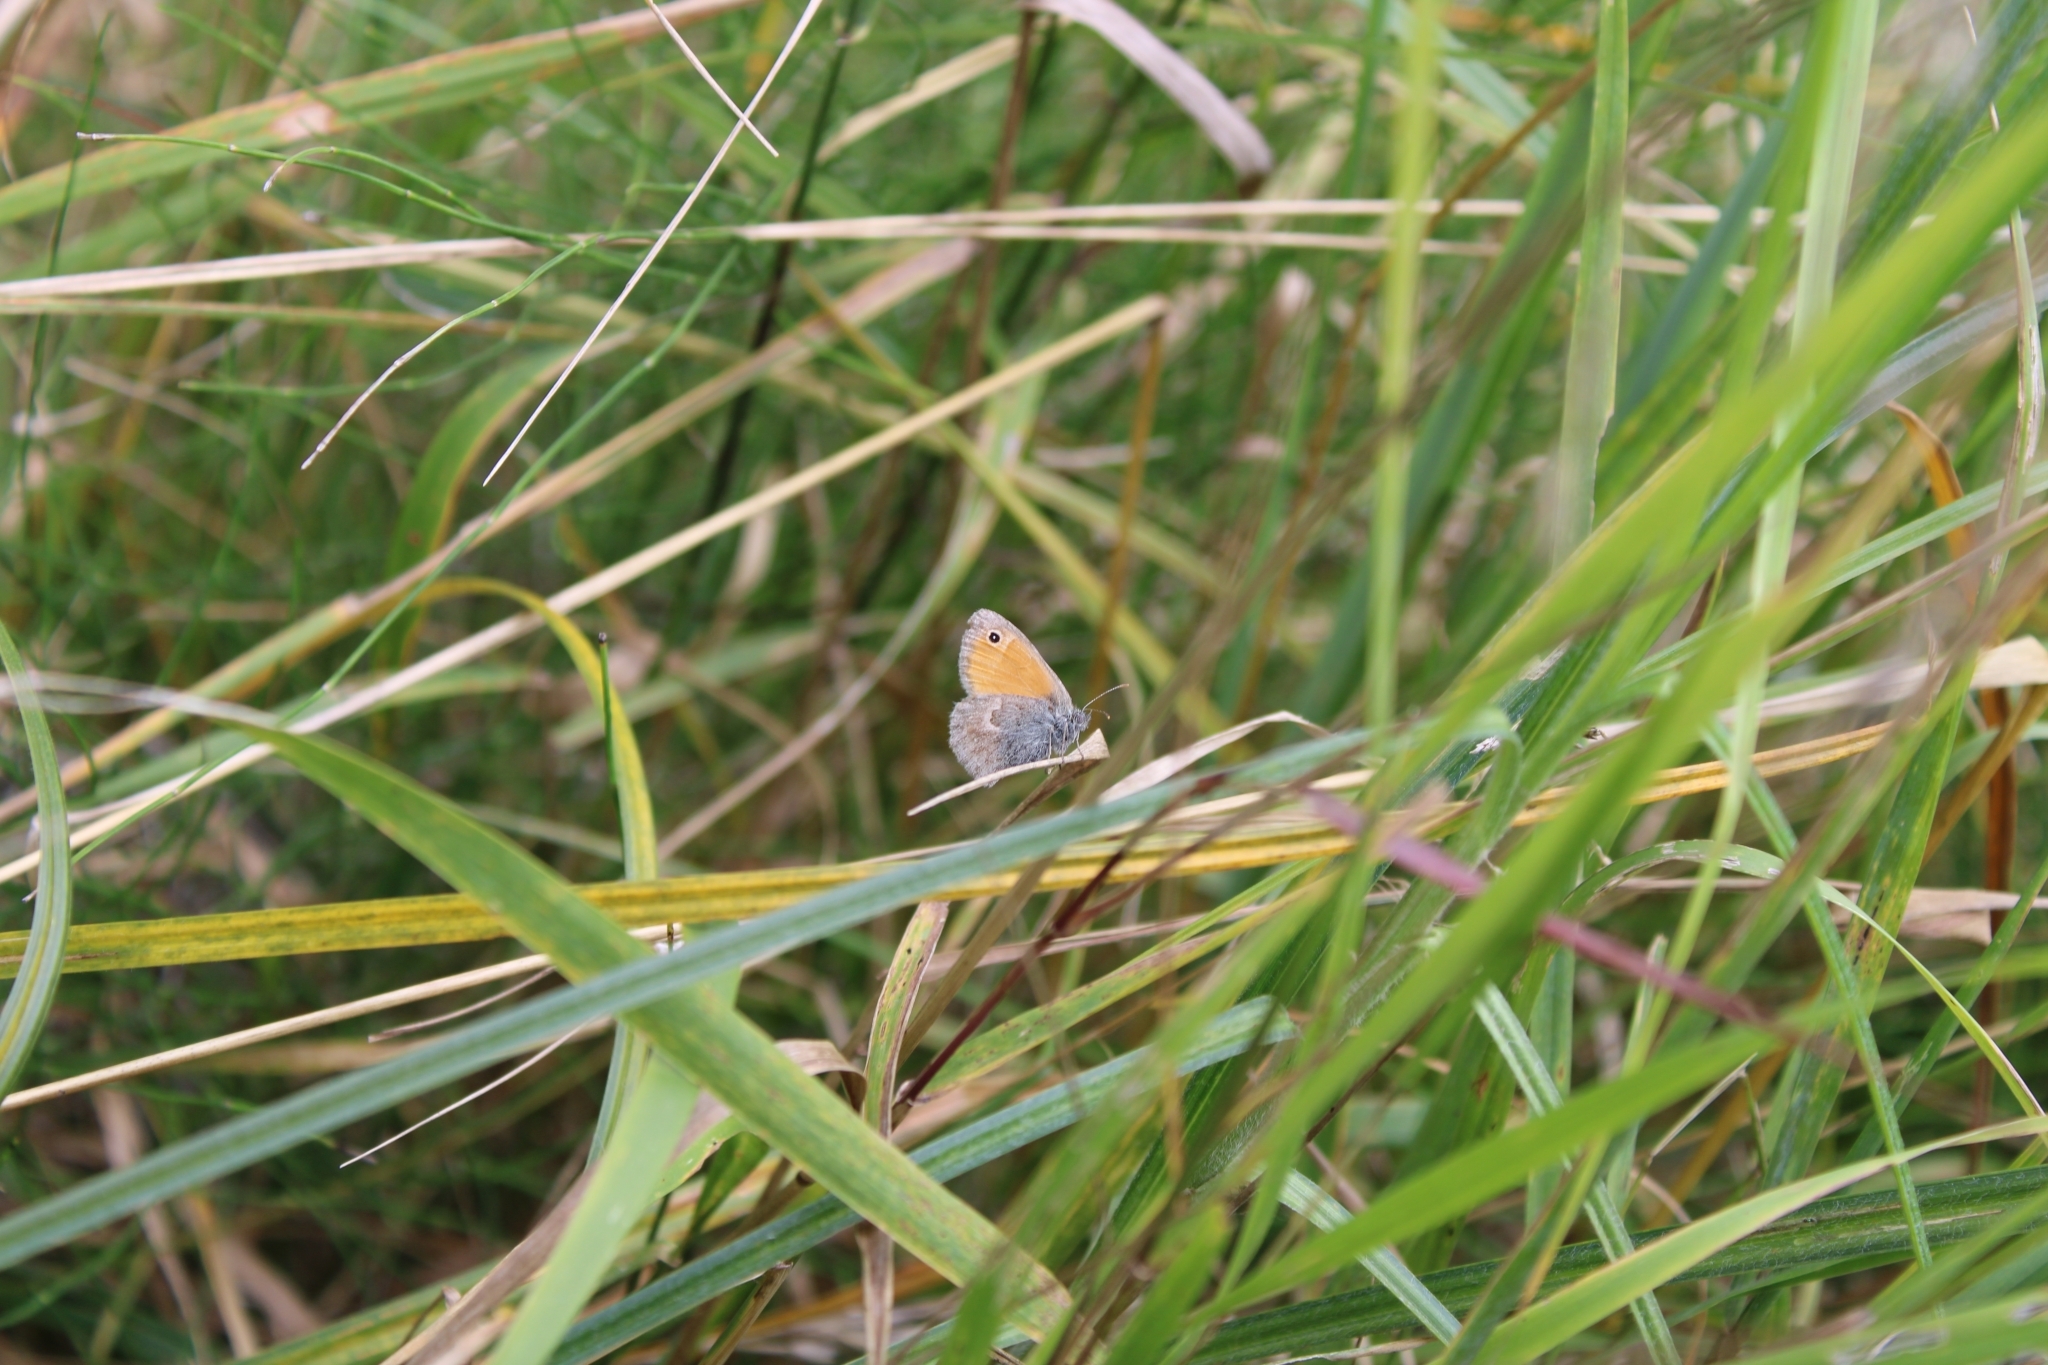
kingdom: Animalia
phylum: Arthropoda
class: Insecta
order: Lepidoptera
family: Nymphalidae
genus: Coenonympha
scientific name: Coenonympha pamphilus
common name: Small heath
